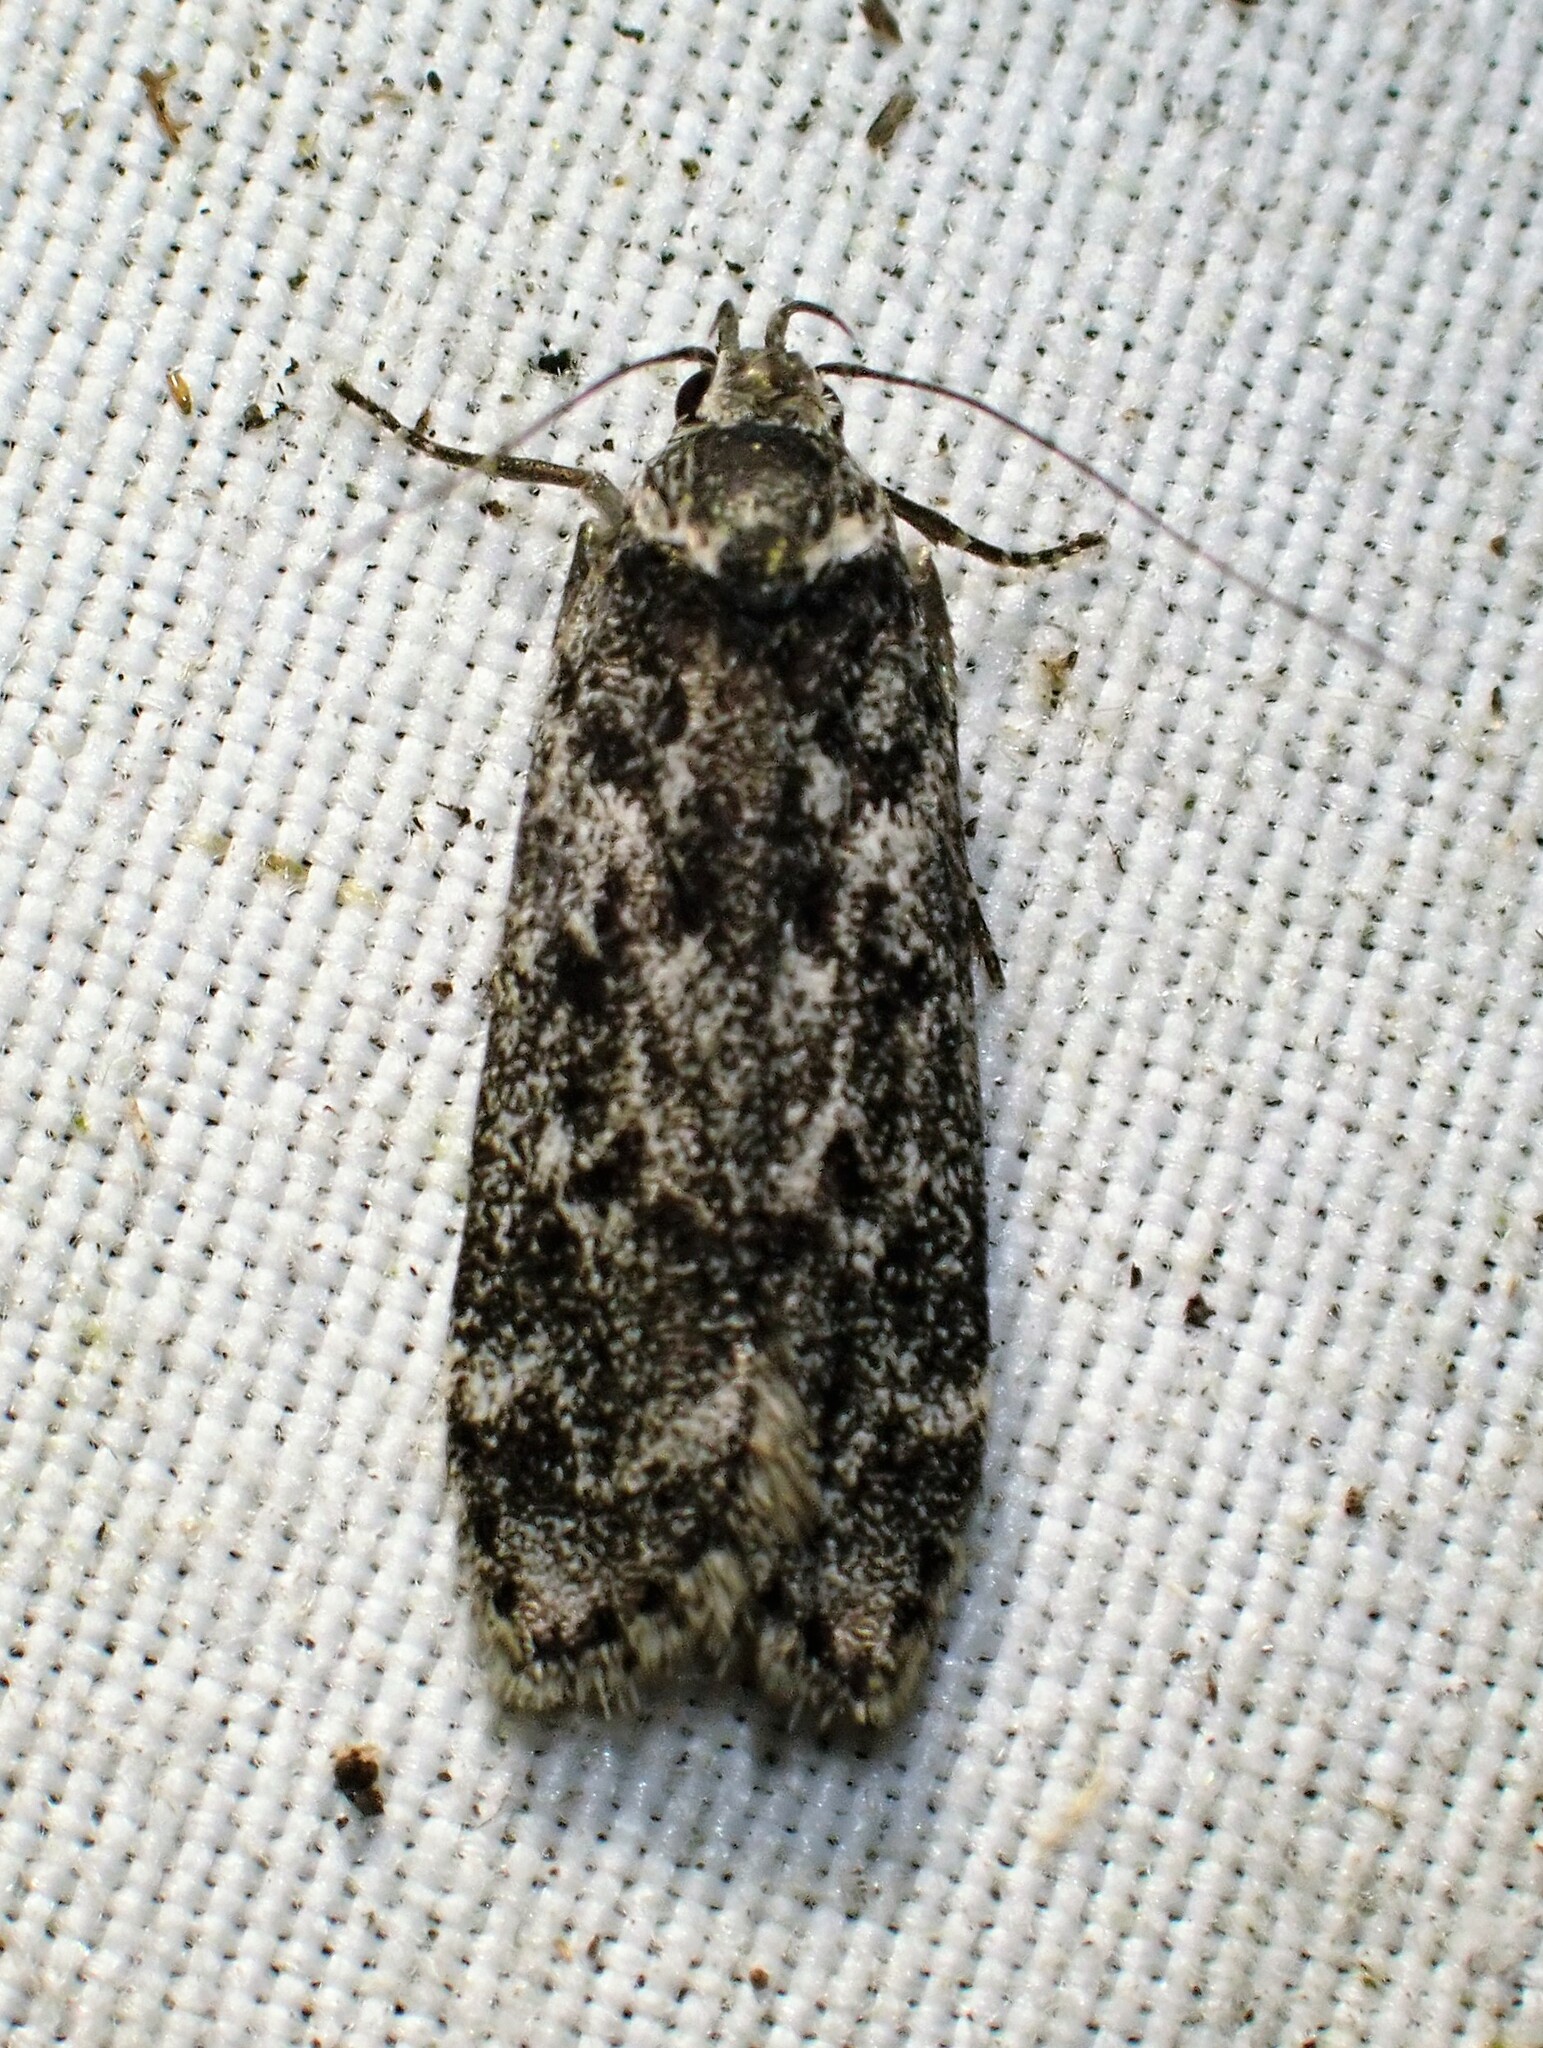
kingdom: Animalia
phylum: Arthropoda
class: Insecta
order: Lepidoptera
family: Gelechiidae
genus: Anacampsis
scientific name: Anacampsis niveopulvella
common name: Pale-headed aspen leafroller moth
